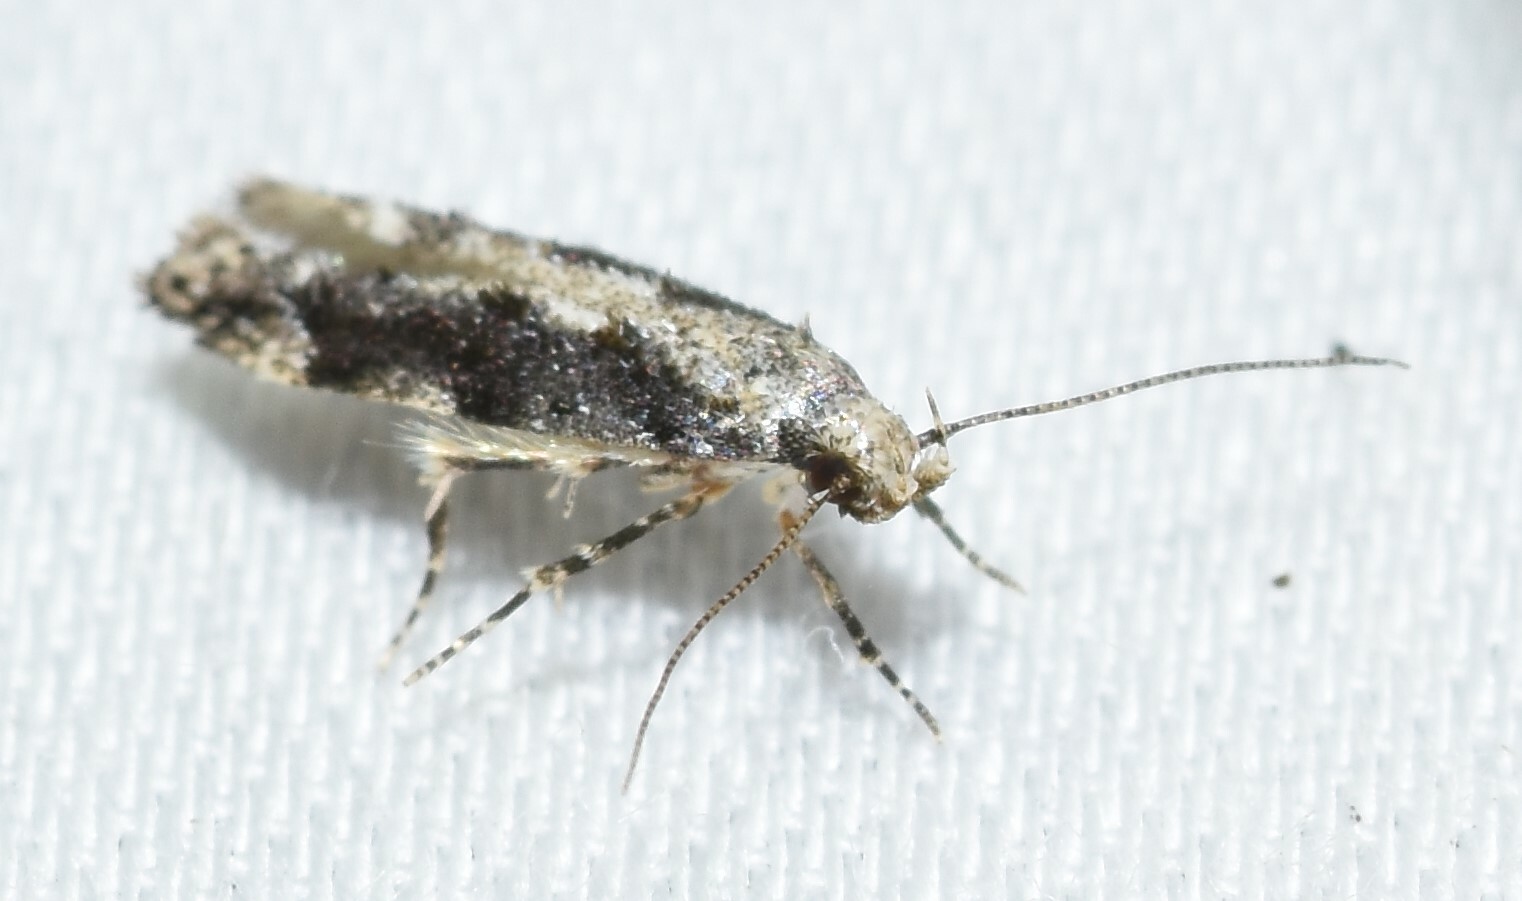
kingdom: Animalia
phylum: Arthropoda
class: Insecta
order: Lepidoptera
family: Gelechiidae
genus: Coleotechnites
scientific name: Coleotechnites florae
